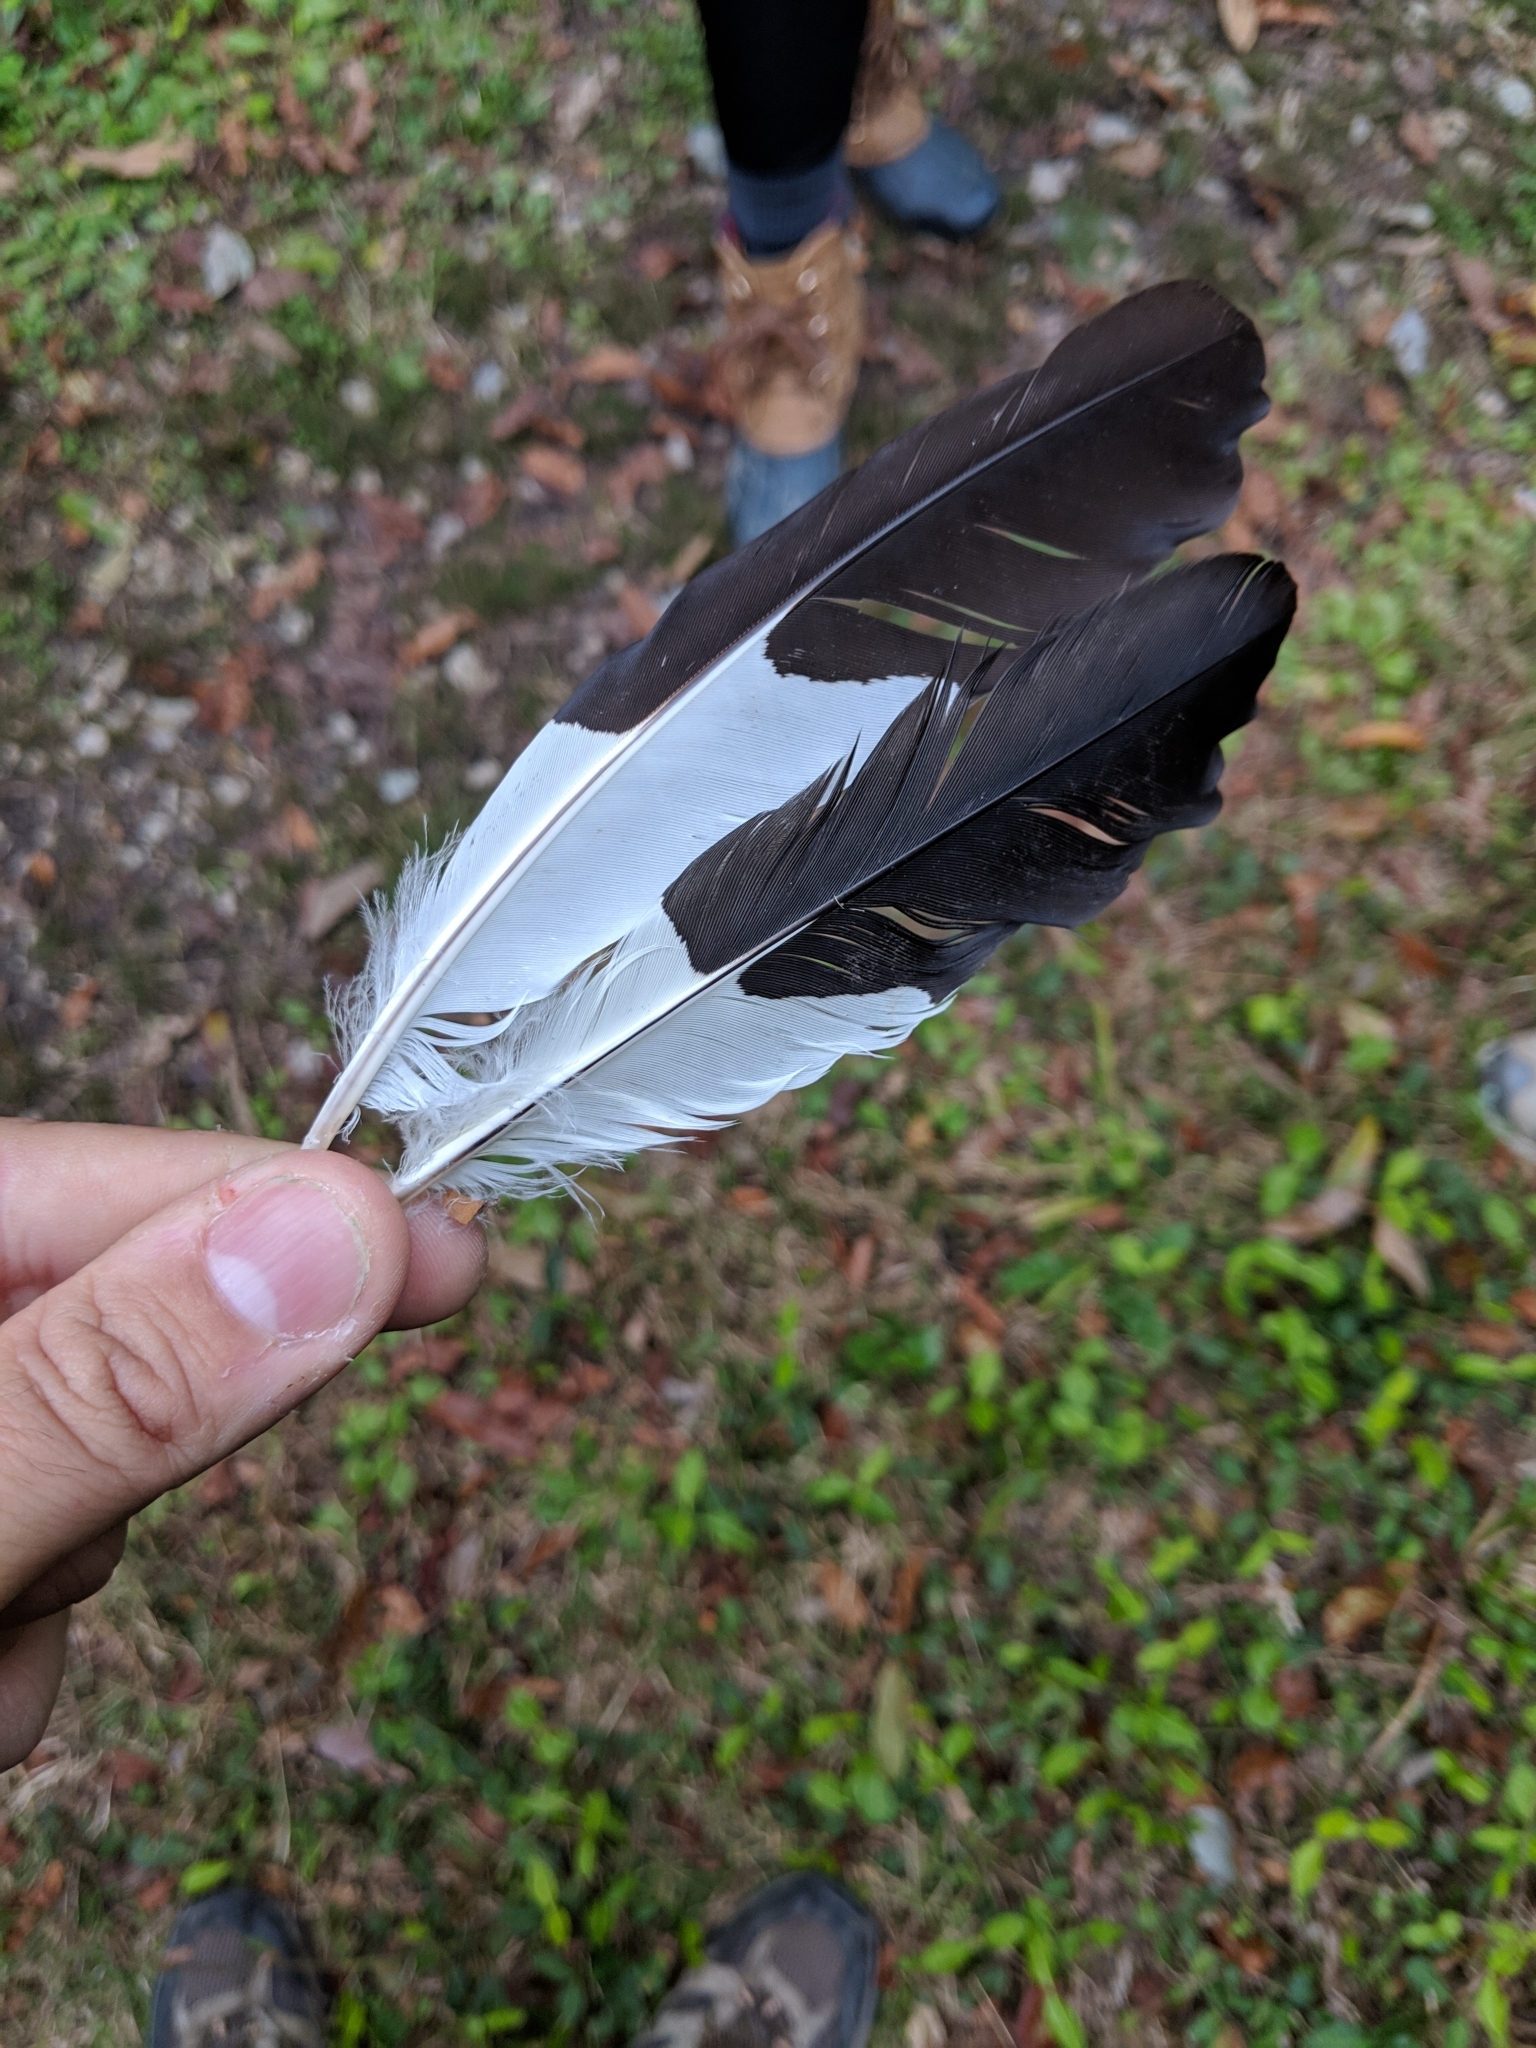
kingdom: Animalia
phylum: Chordata
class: Aves
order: Piciformes
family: Picidae
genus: Dryocopus
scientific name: Dryocopus pileatus
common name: Pileated woodpecker
